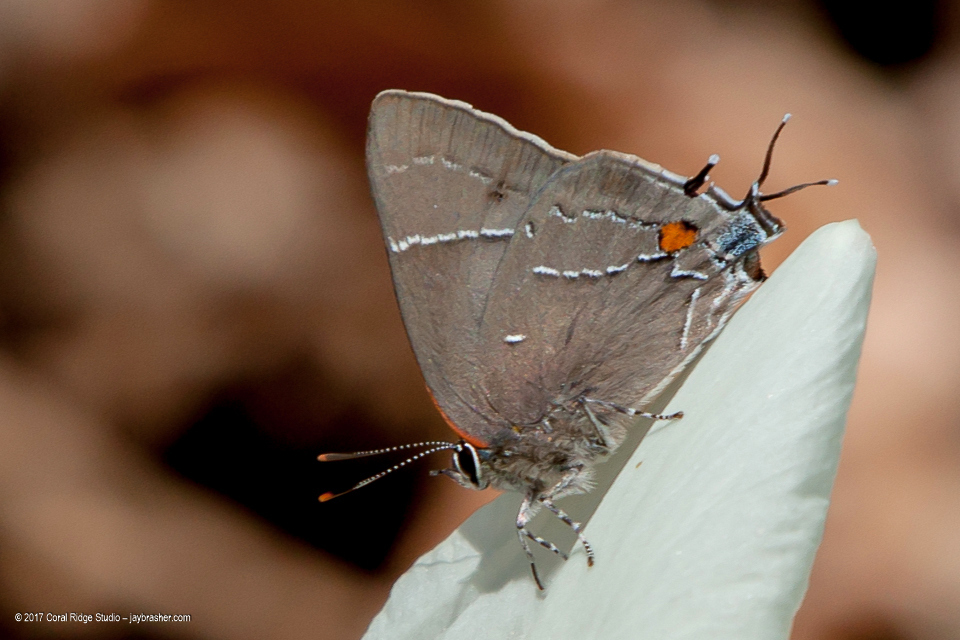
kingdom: Animalia
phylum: Arthropoda
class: Insecta
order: Lepidoptera
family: Lycaenidae
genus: Parrhasius
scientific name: Parrhasius m-album
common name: White m hairstreak
